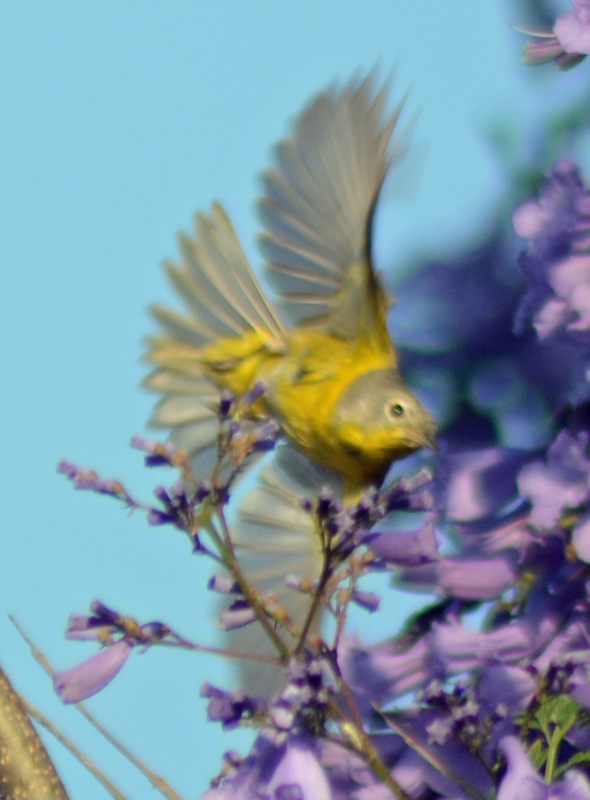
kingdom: Animalia
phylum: Chordata
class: Aves
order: Passeriformes
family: Parulidae
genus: Leiothlypis
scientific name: Leiothlypis ruficapilla
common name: Nashville warbler
